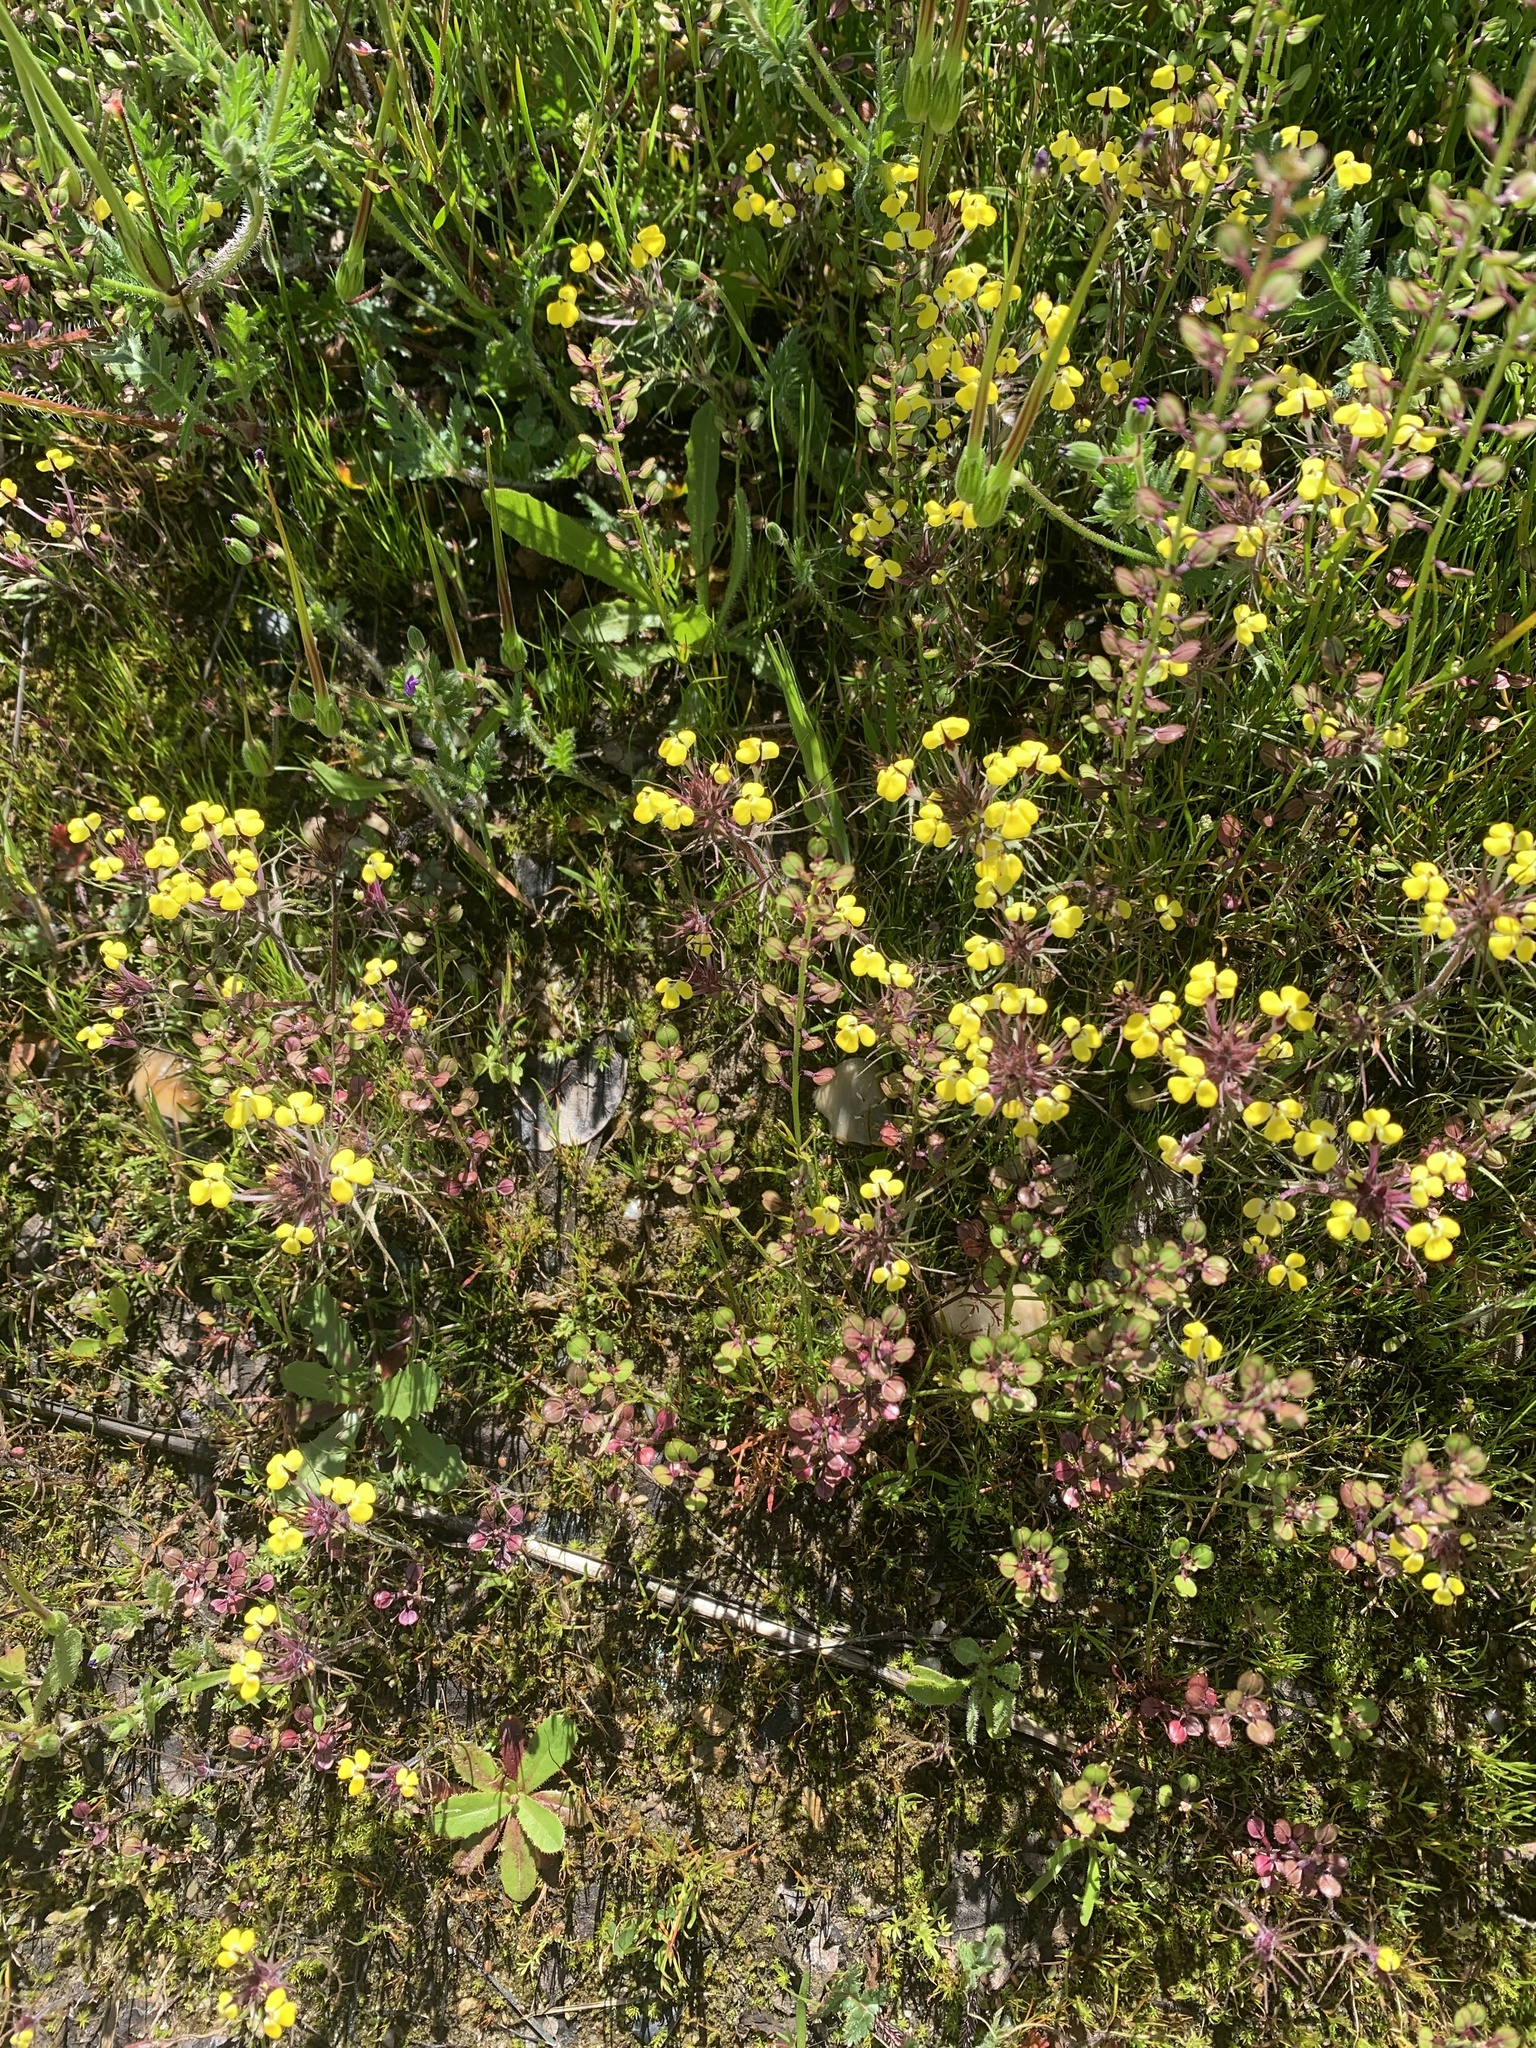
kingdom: Plantae
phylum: Tracheophyta
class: Magnoliopsida
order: Lamiales
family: Orobanchaceae
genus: Triphysaria
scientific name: Triphysaria eriantha
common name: Johnny-tuck
